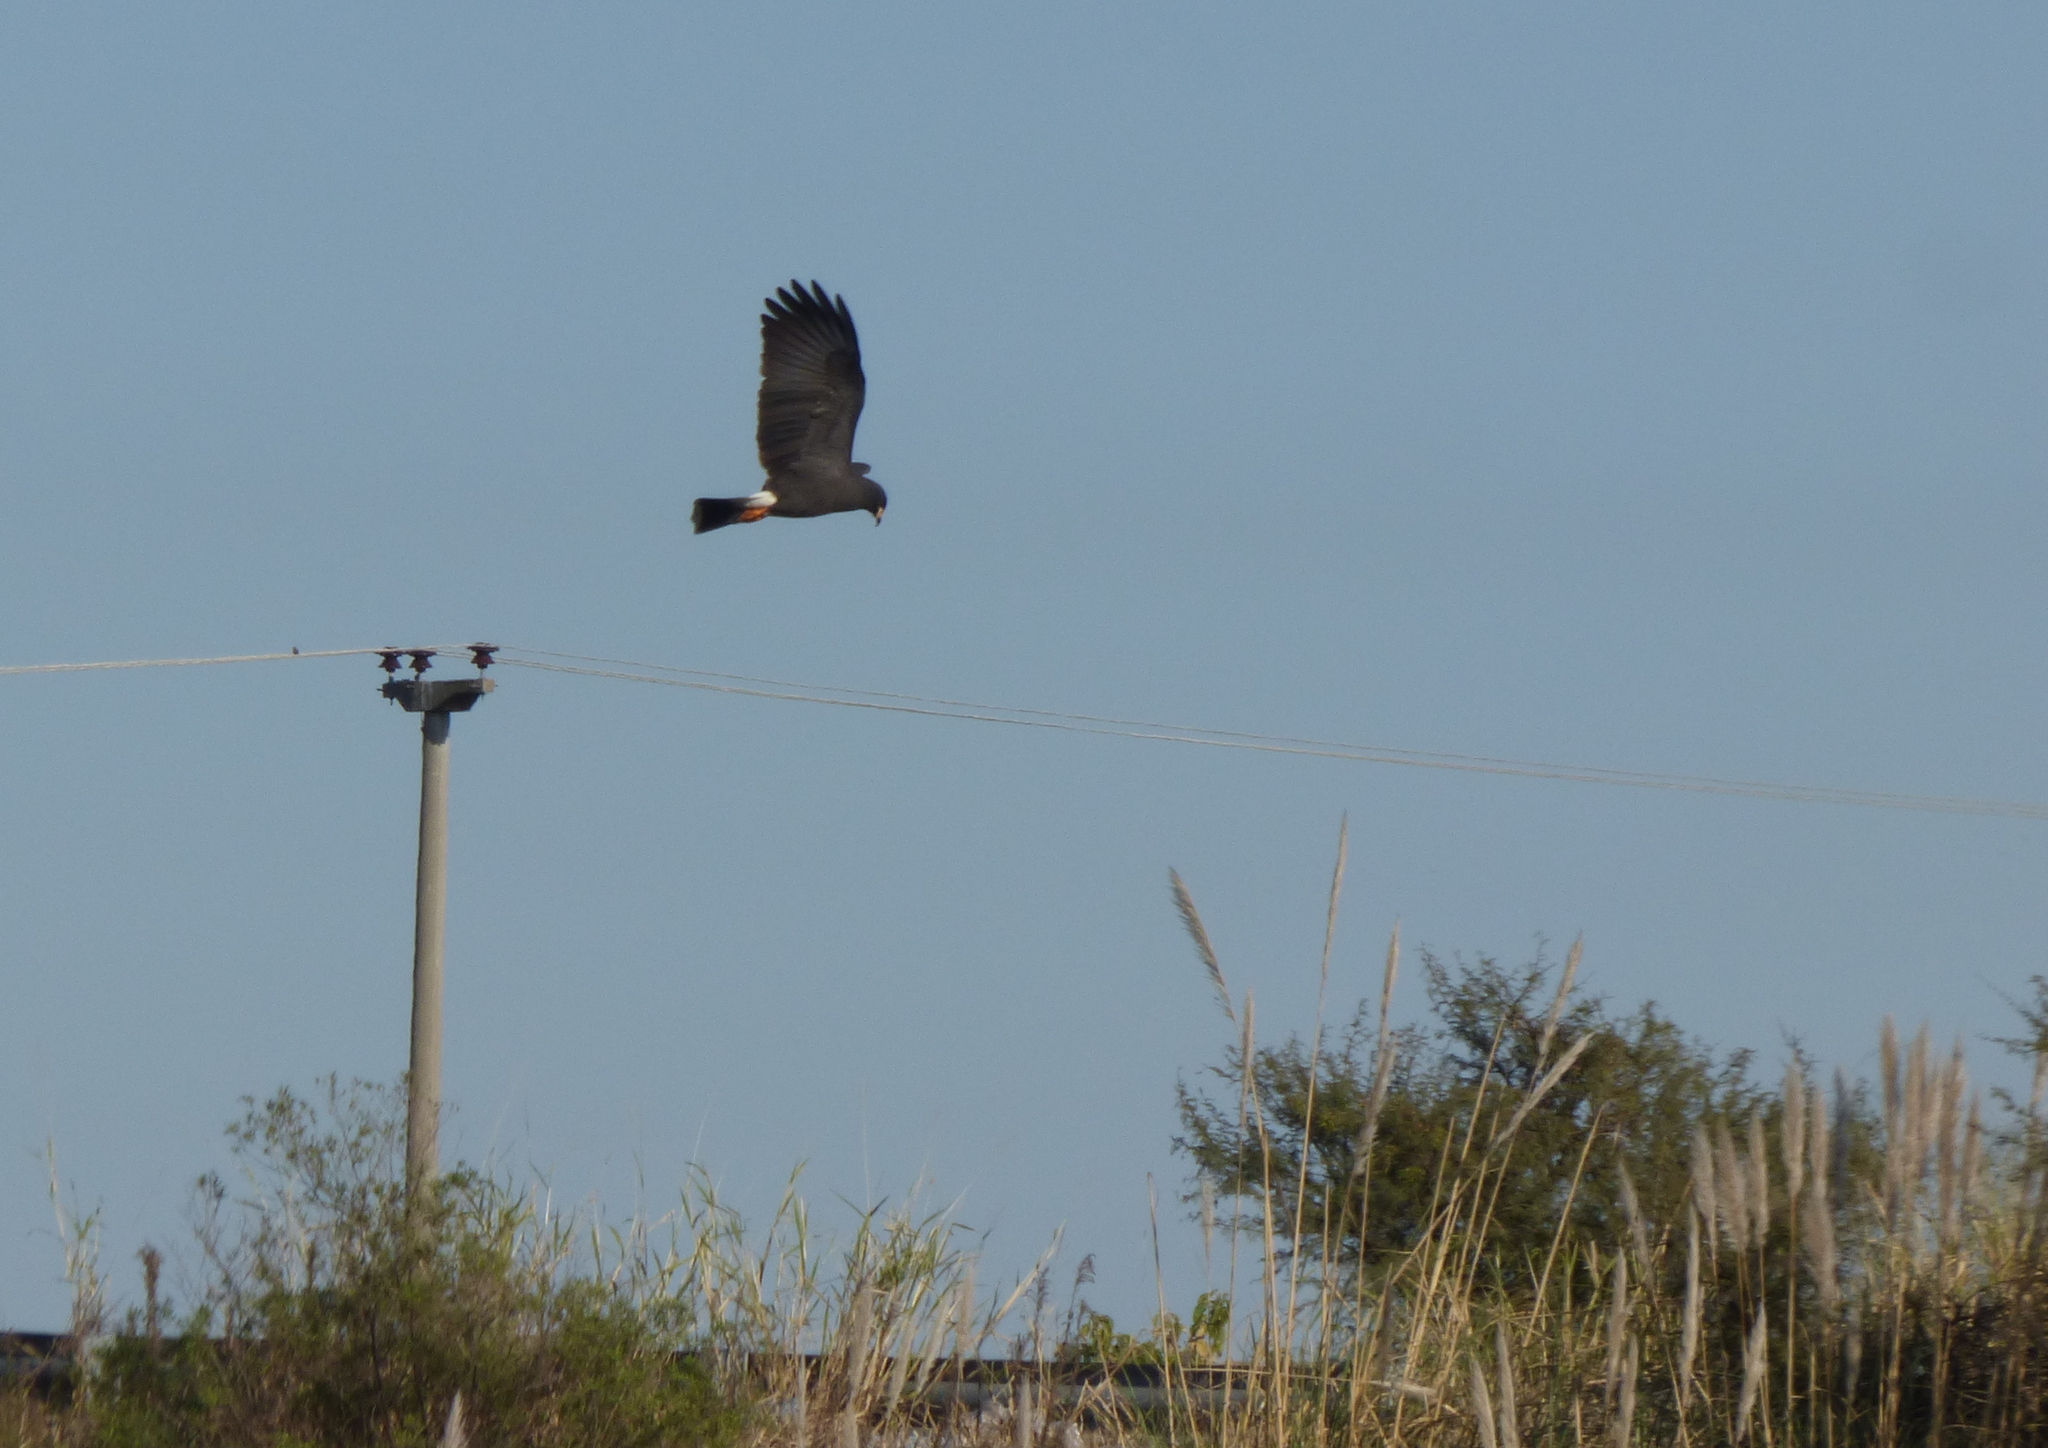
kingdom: Animalia
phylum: Chordata
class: Aves
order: Accipitriformes
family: Accipitridae
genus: Rostrhamus
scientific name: Rostrhamus sociabilis
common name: Snail kite
